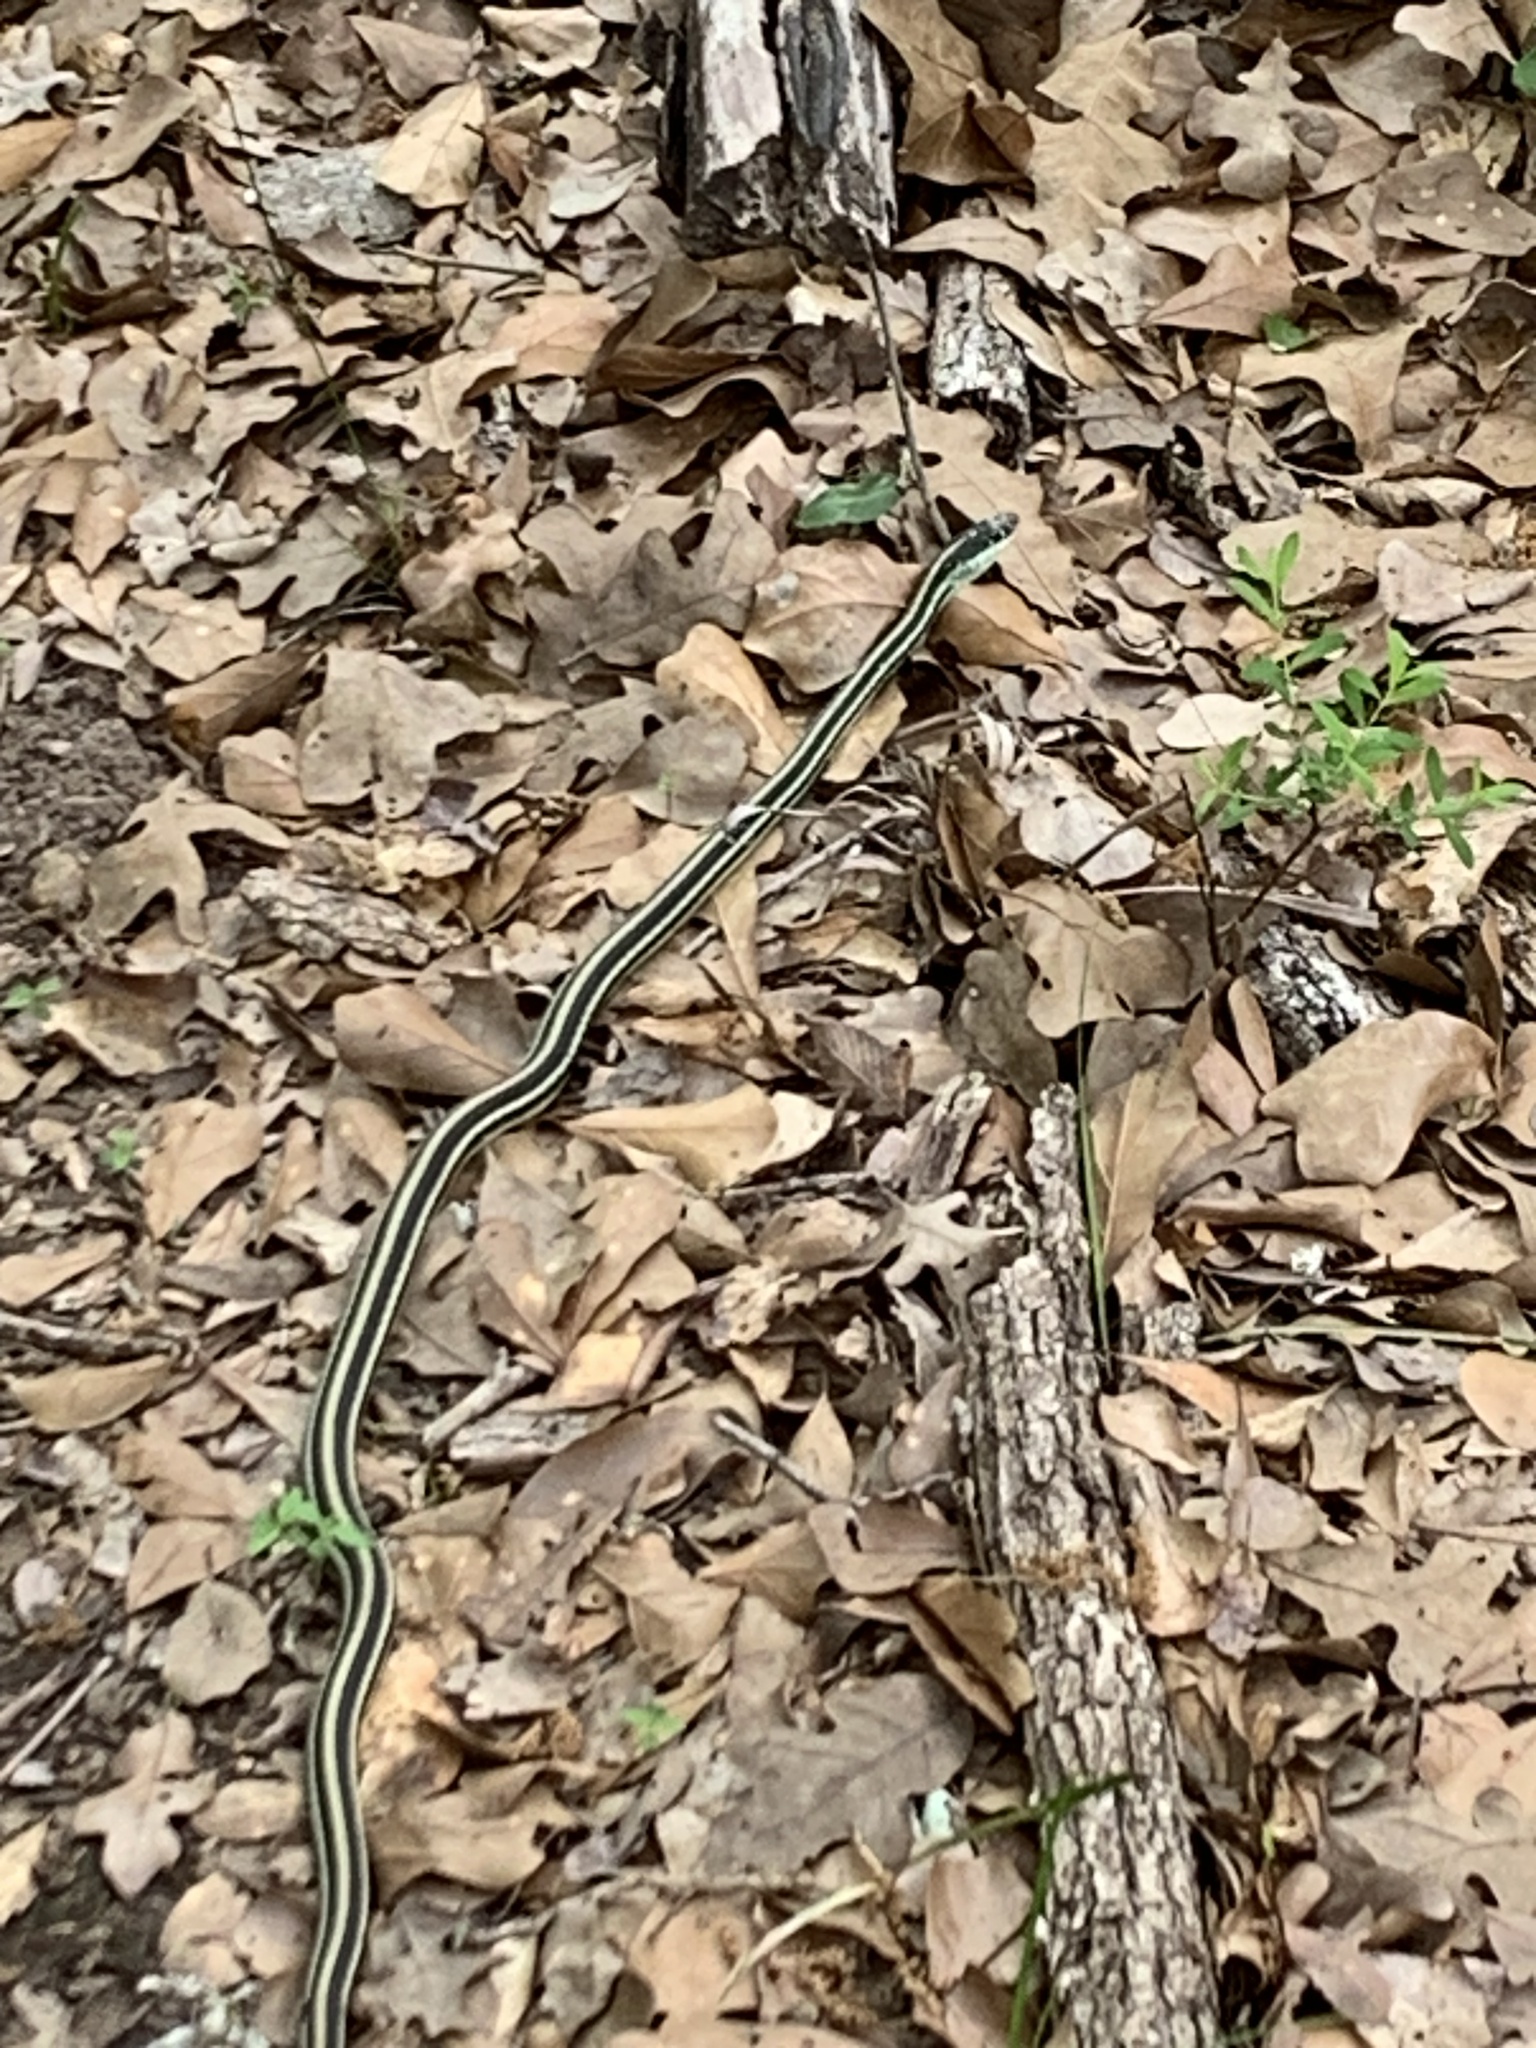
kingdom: Animalia
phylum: Chordata
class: Squamata
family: Colubridae
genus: Thamnophis
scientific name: Thamnophis proximus
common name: Western ribbon snake
